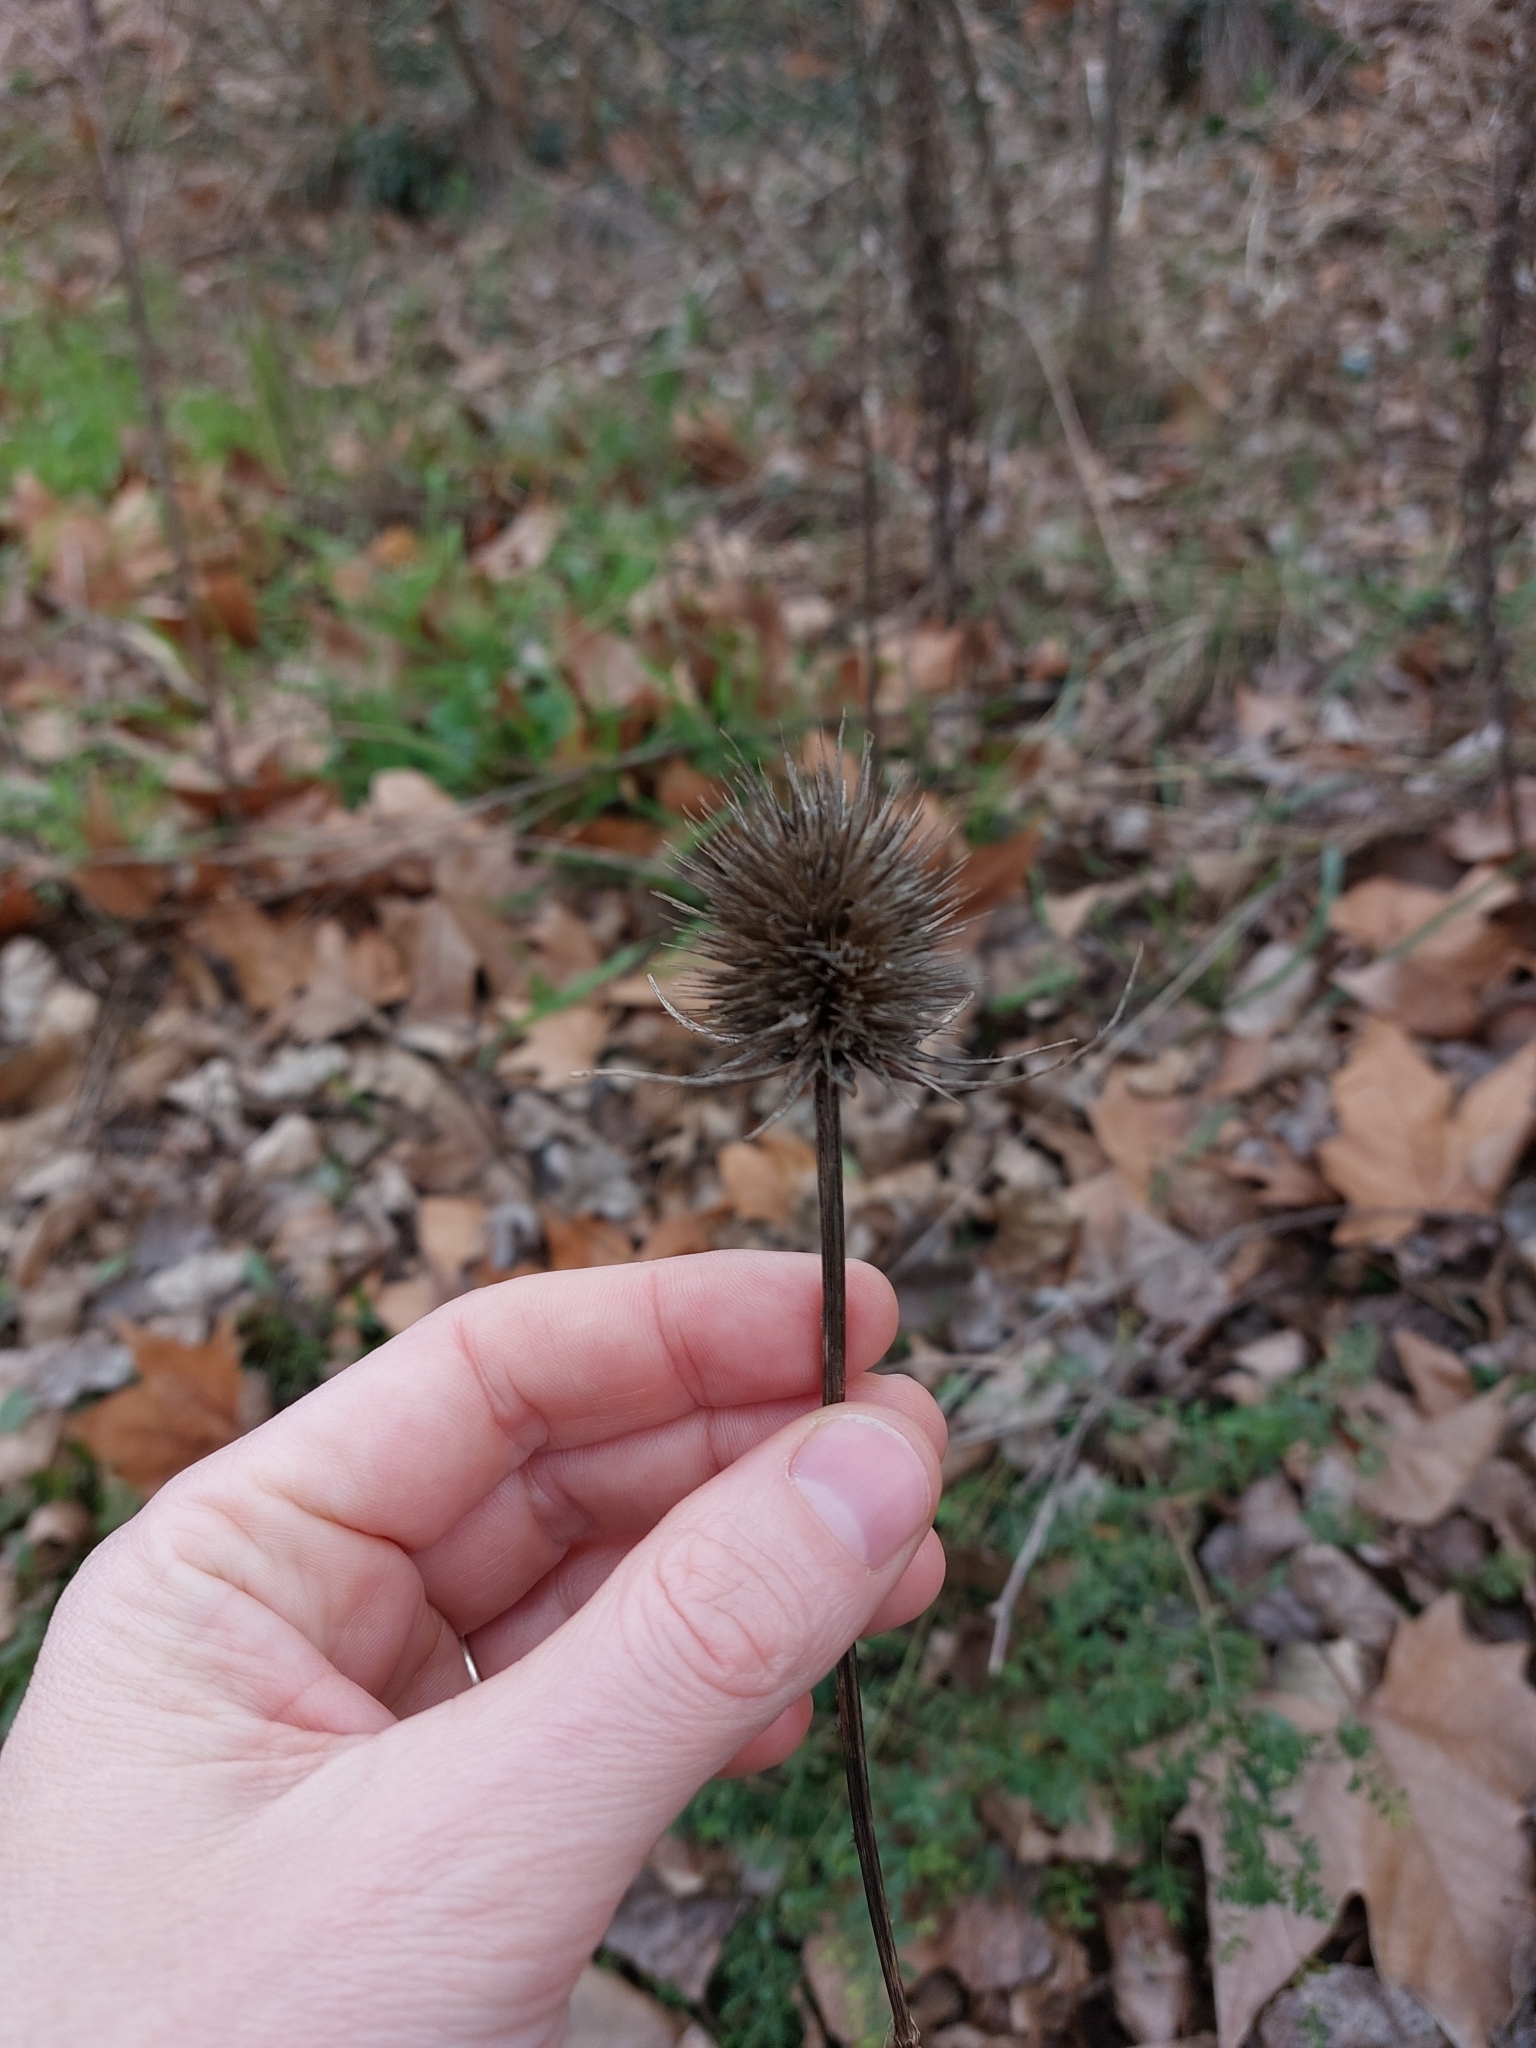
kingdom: Plantae
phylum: Tracheophyta
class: Magnoliopsida
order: Dipsacales
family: Caprifoliaceae
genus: Dipsacus
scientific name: Dipsacus fullonum
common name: Teasel
